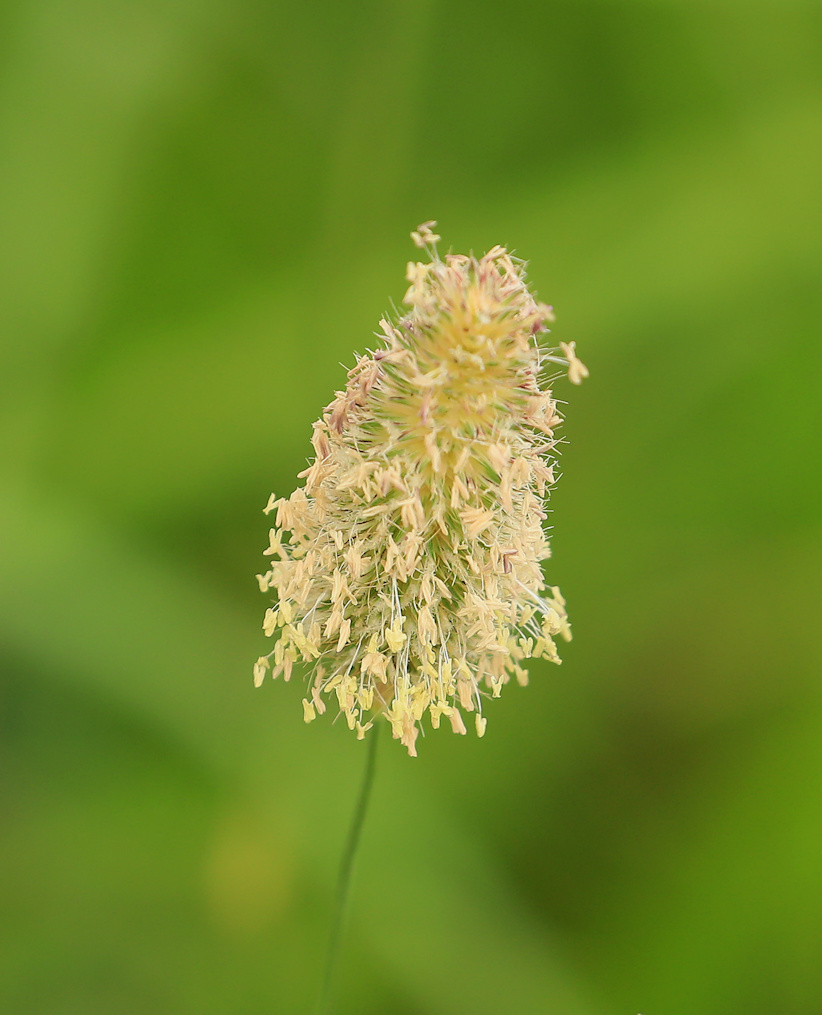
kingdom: Plantae
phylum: Tracheophyta
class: Liliopsida
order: Poales
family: Poaceae
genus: Fingerhuthia
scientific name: Fingerhuthia africana
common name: Zulu fescue
